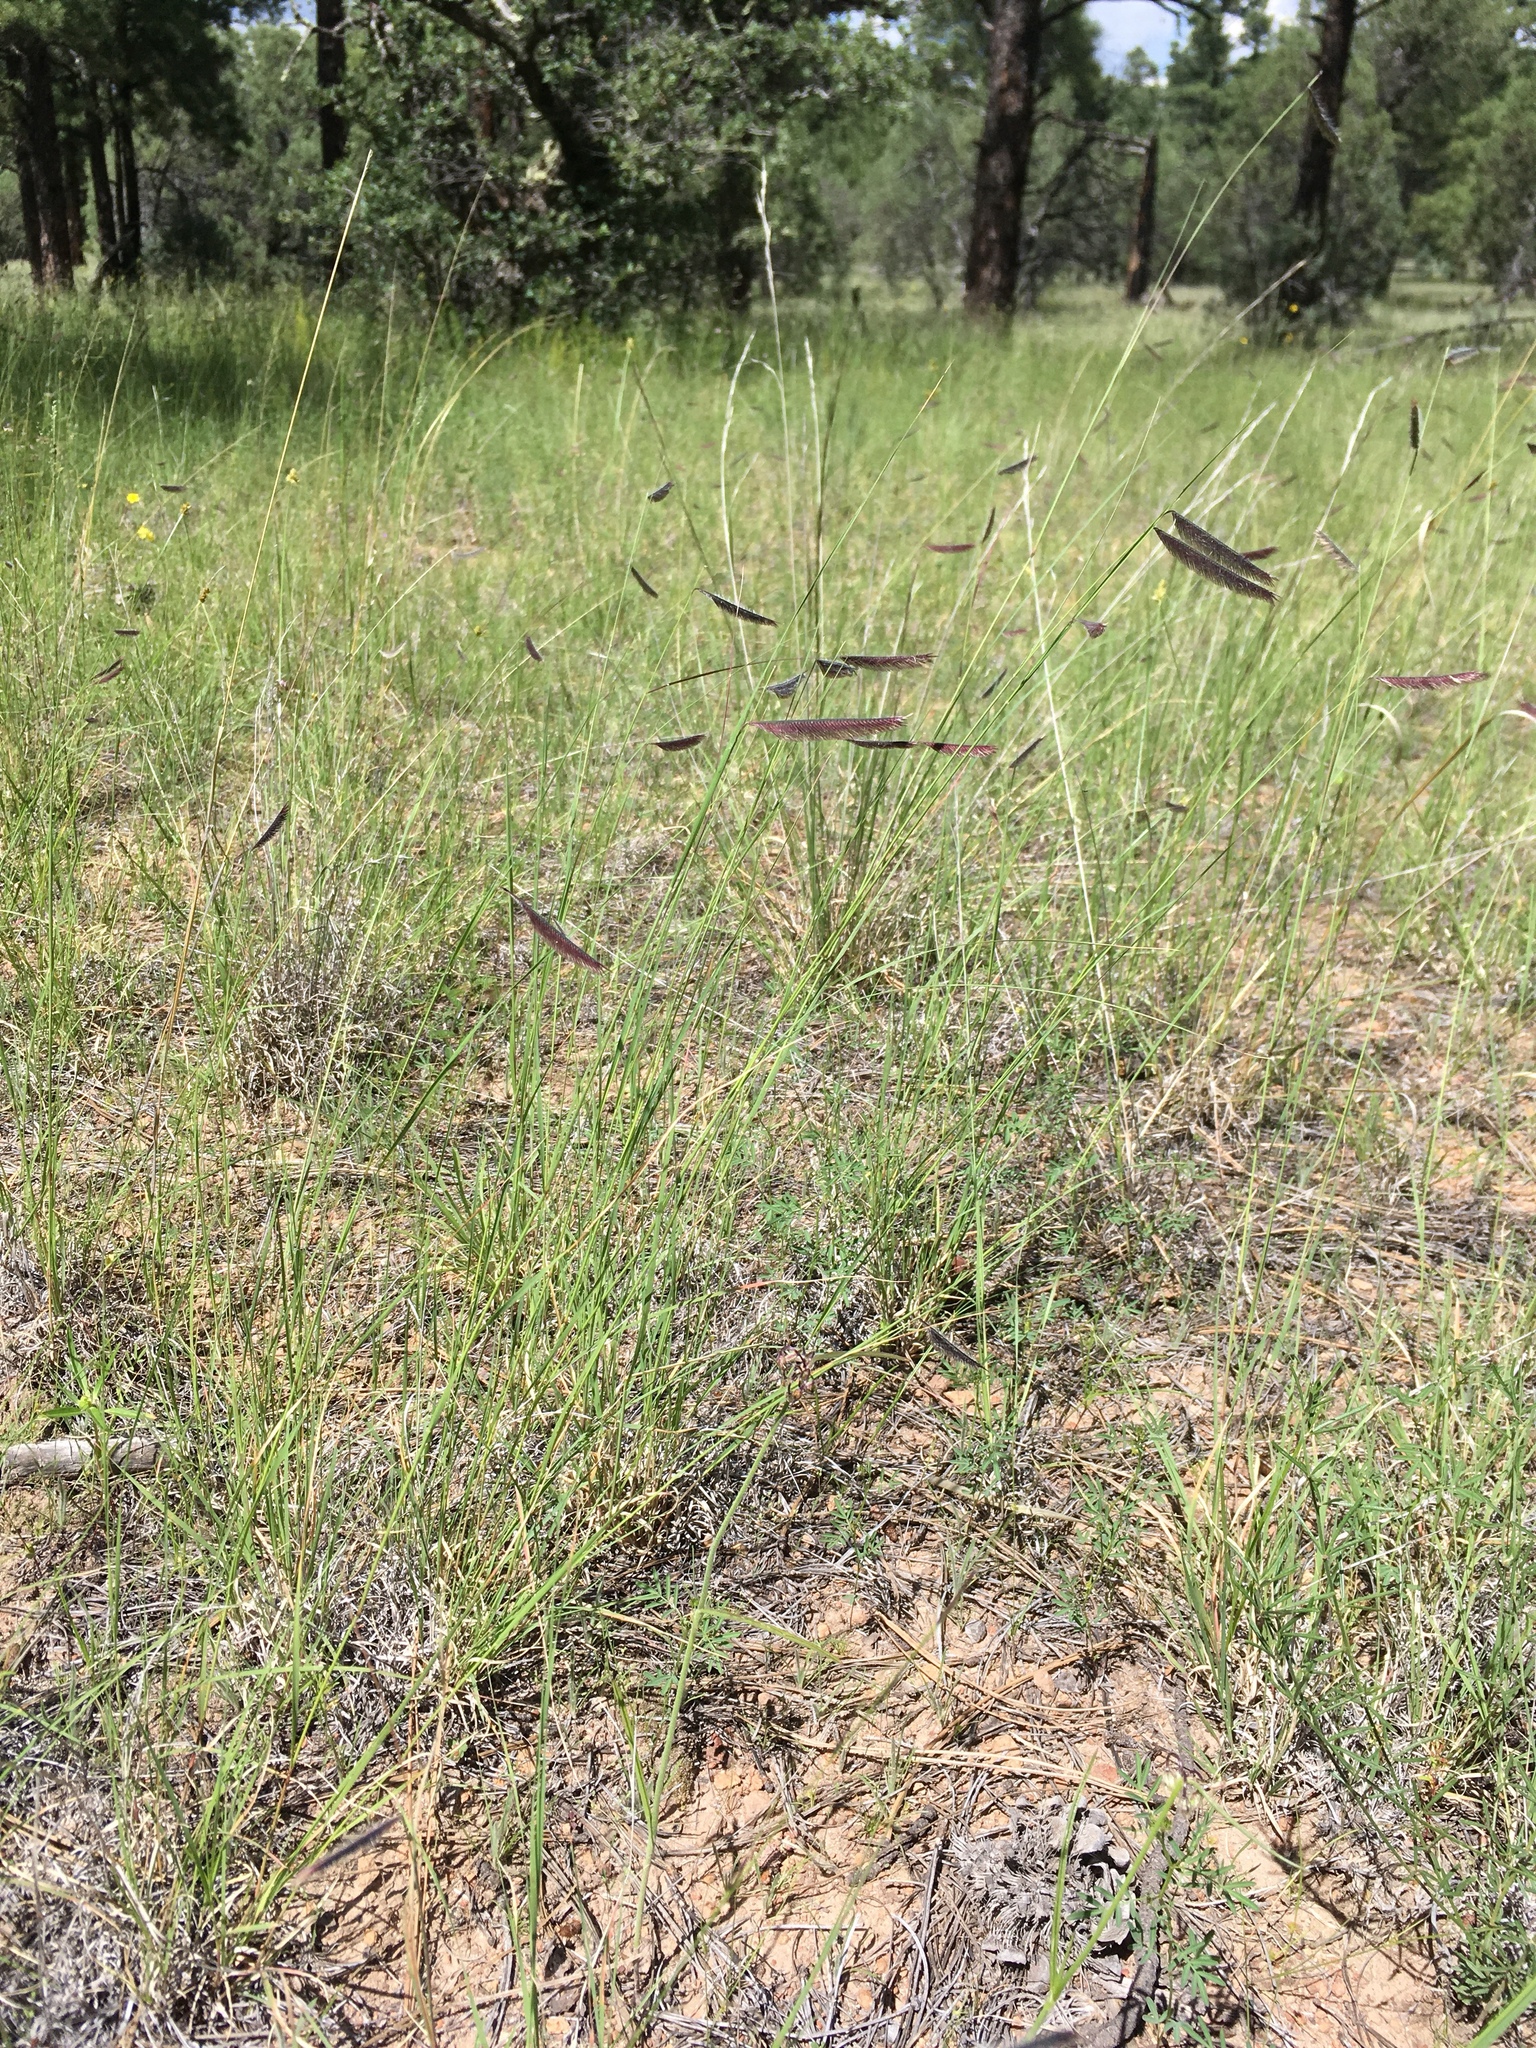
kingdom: Plantae
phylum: Tracheophyta
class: Liliopsida
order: Poales
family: Poaceae
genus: Bouteloua
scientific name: Bouteloua gracilis
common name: Blue grama
